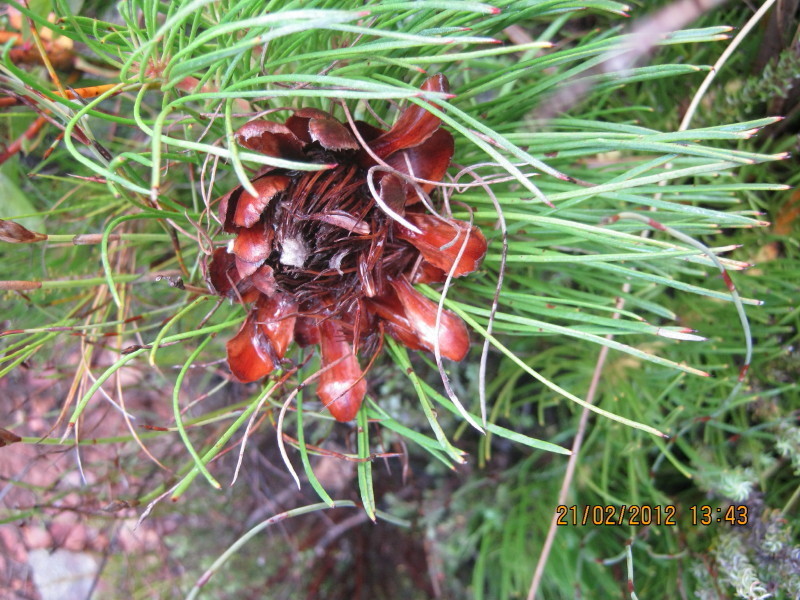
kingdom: Plantae
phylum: Tracheophyta
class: Magnoliopsida
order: Proteales
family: Proteaceae
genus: Protea
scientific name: Protea montana
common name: Swartberg sugarbush
